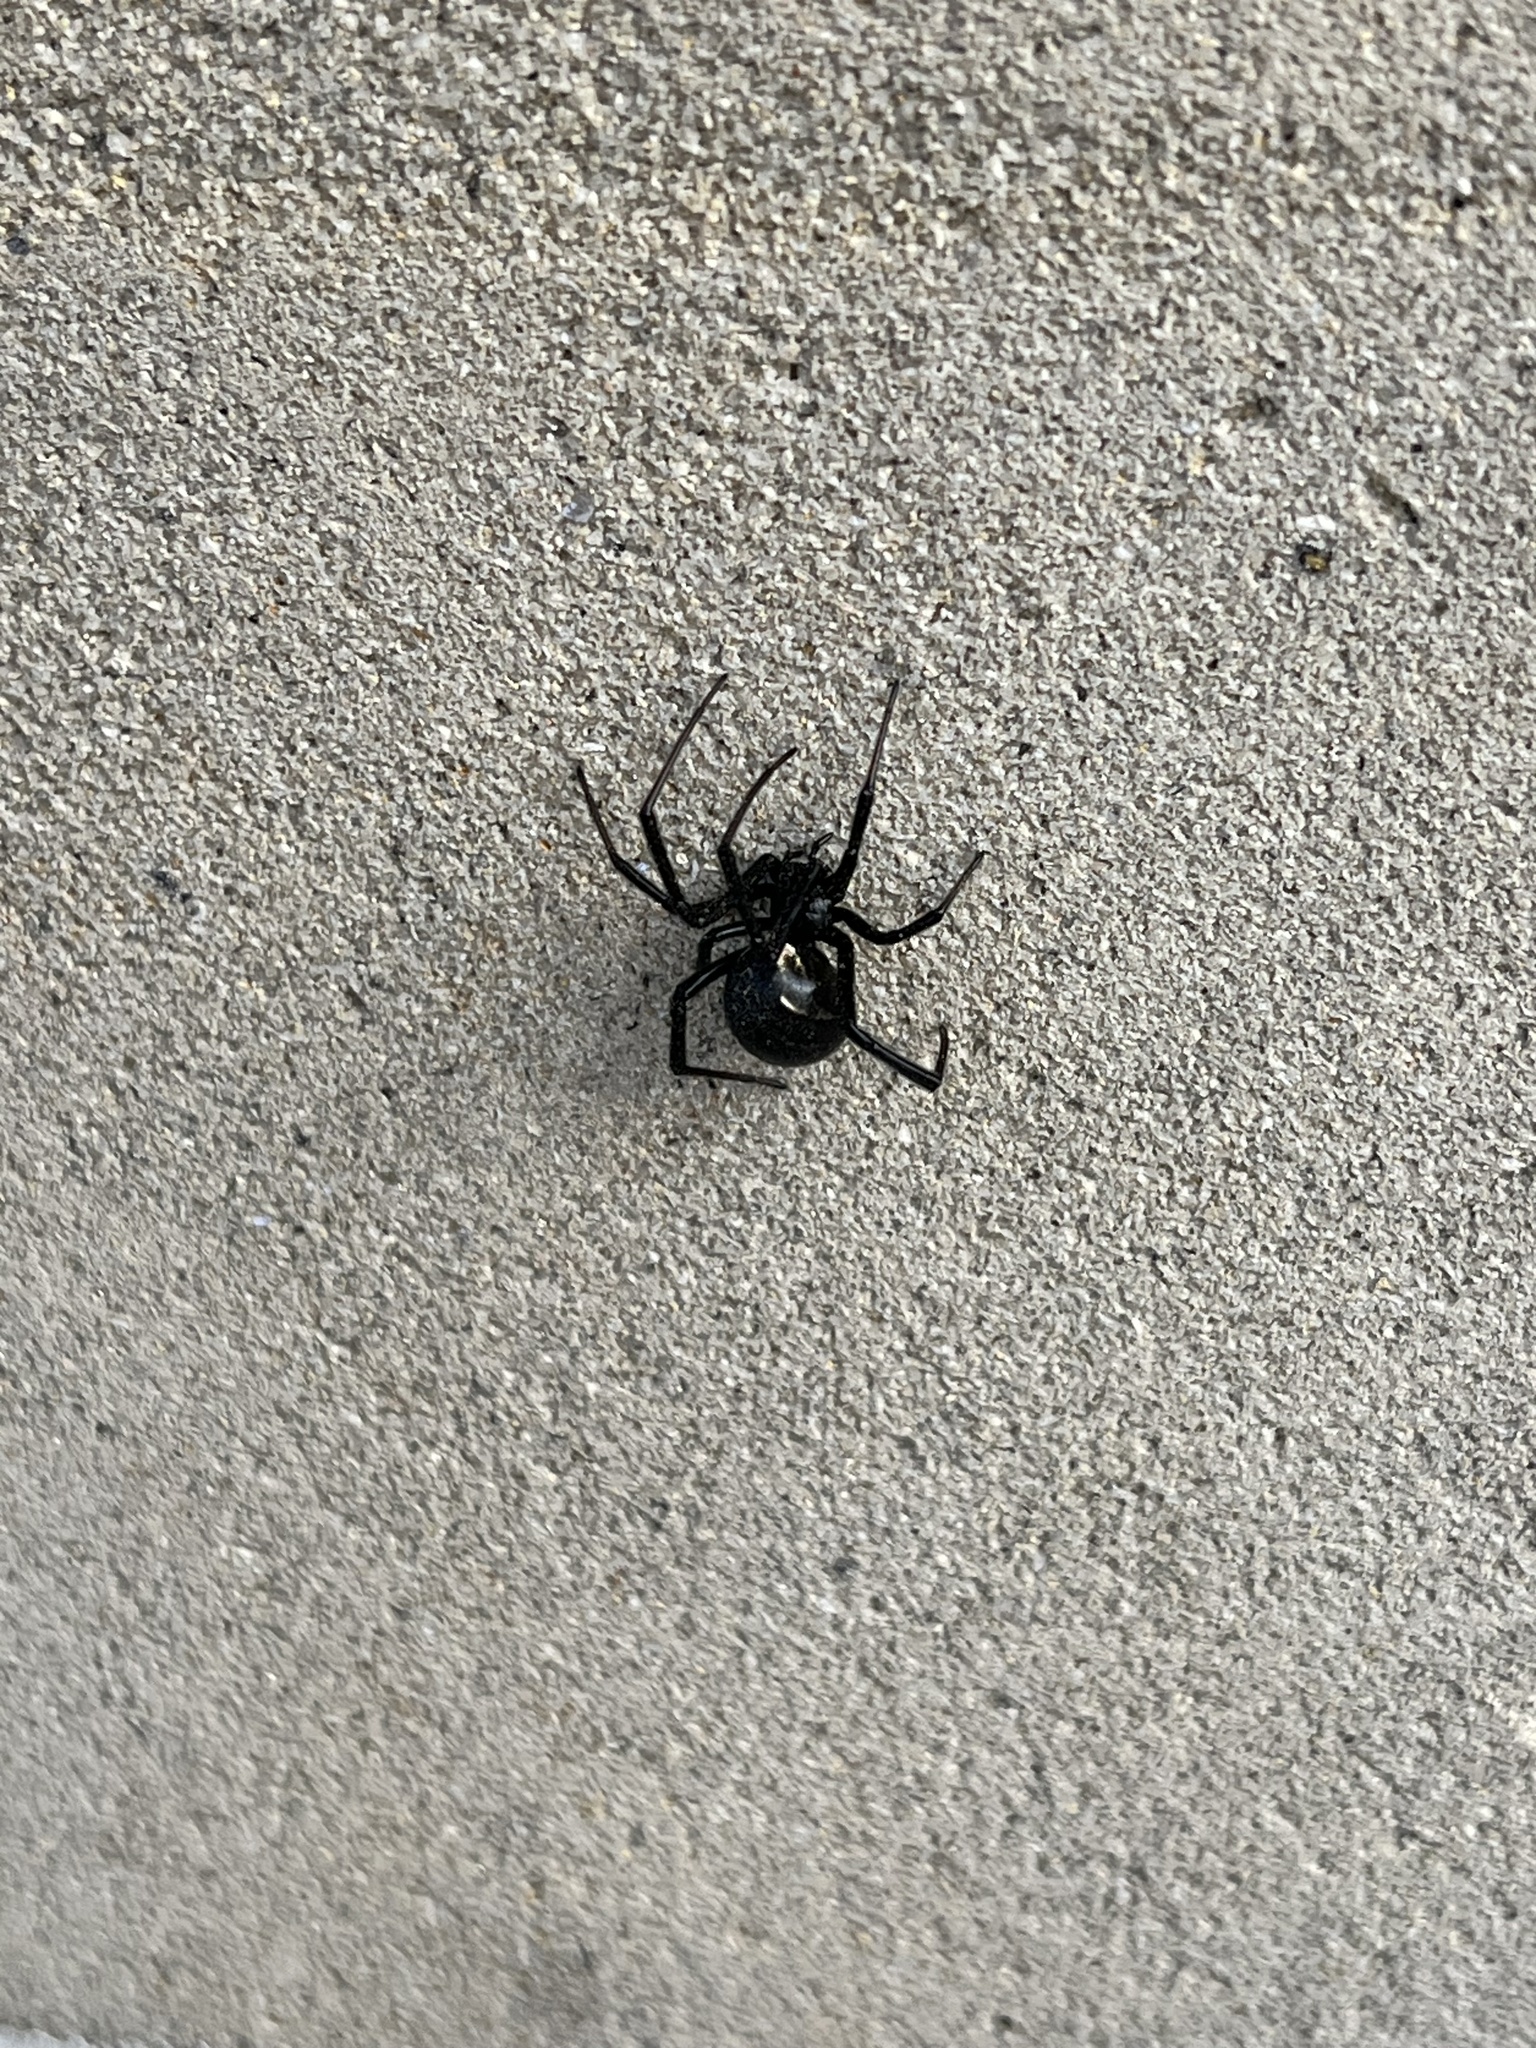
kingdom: Animalia
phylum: Arthropoda
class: Arachnida
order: Araneae
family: Theridiidae
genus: Latrodectus
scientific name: Latrodectus hesperus
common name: Western black widow
